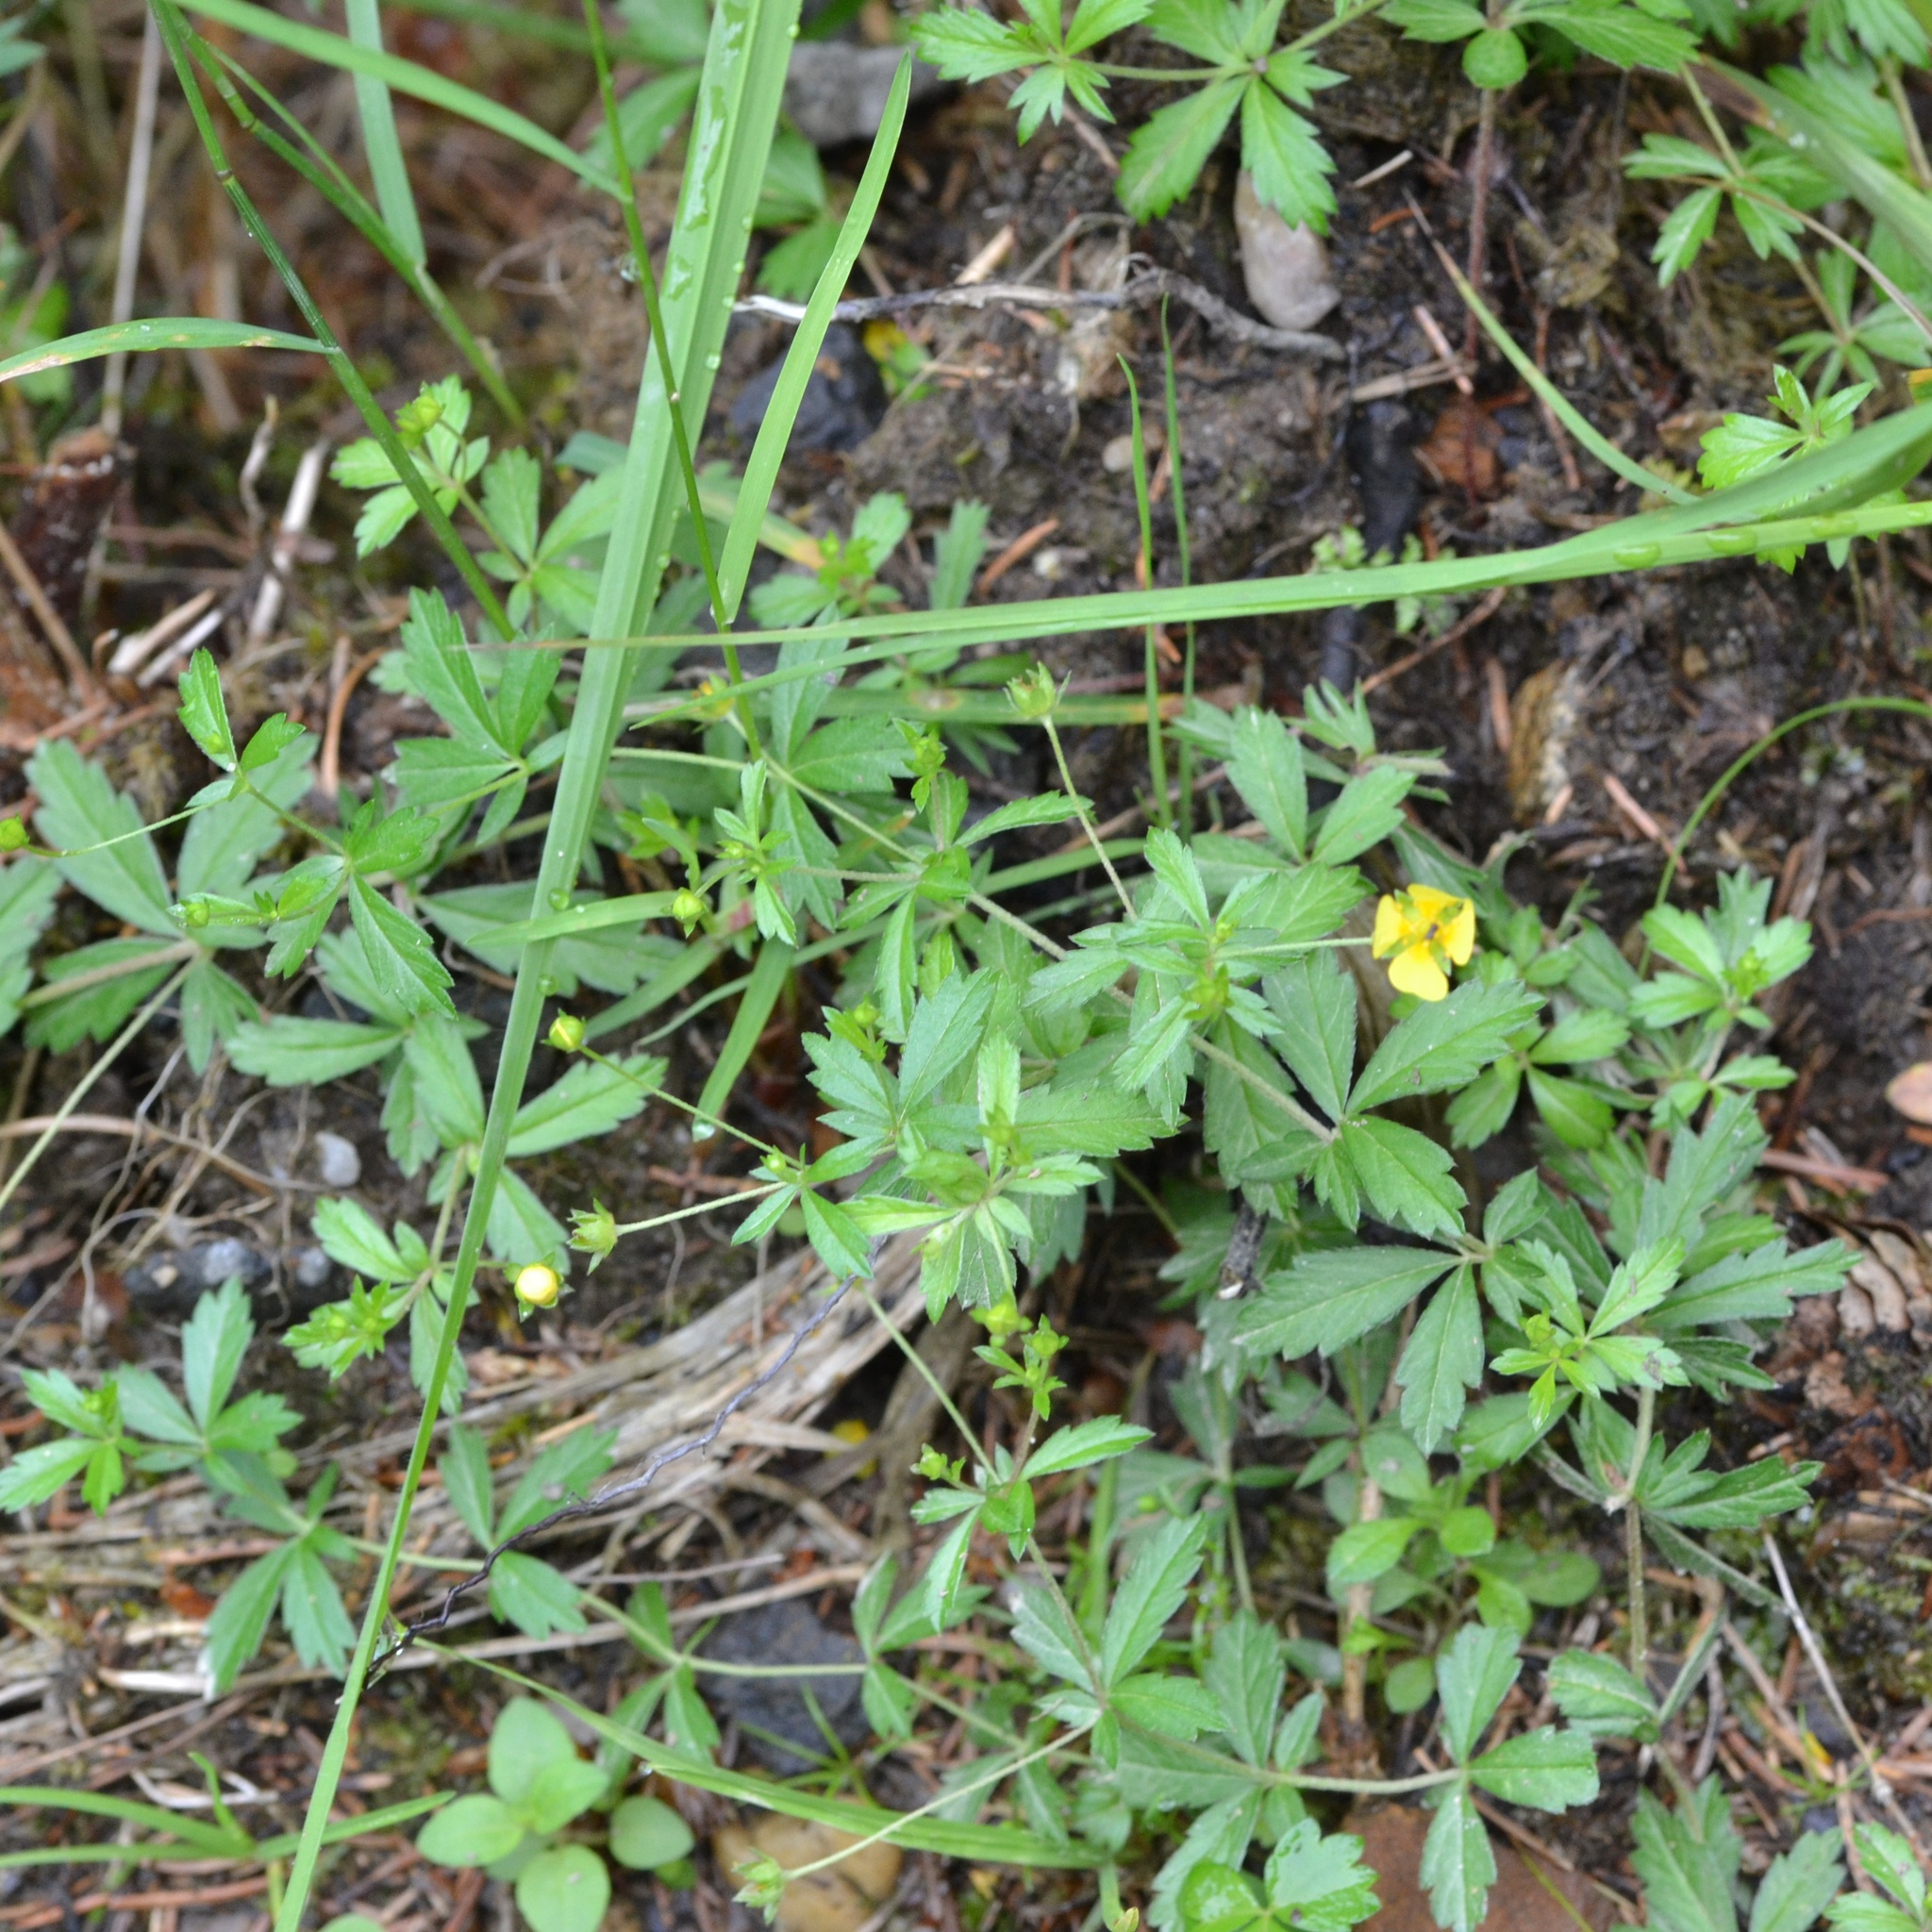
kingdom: Plantae
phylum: Tracheophyta
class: Magnoliopsida
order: Rosales
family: Rosaceae
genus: Potentilla
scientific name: Potentilla erecta
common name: Tormentil
